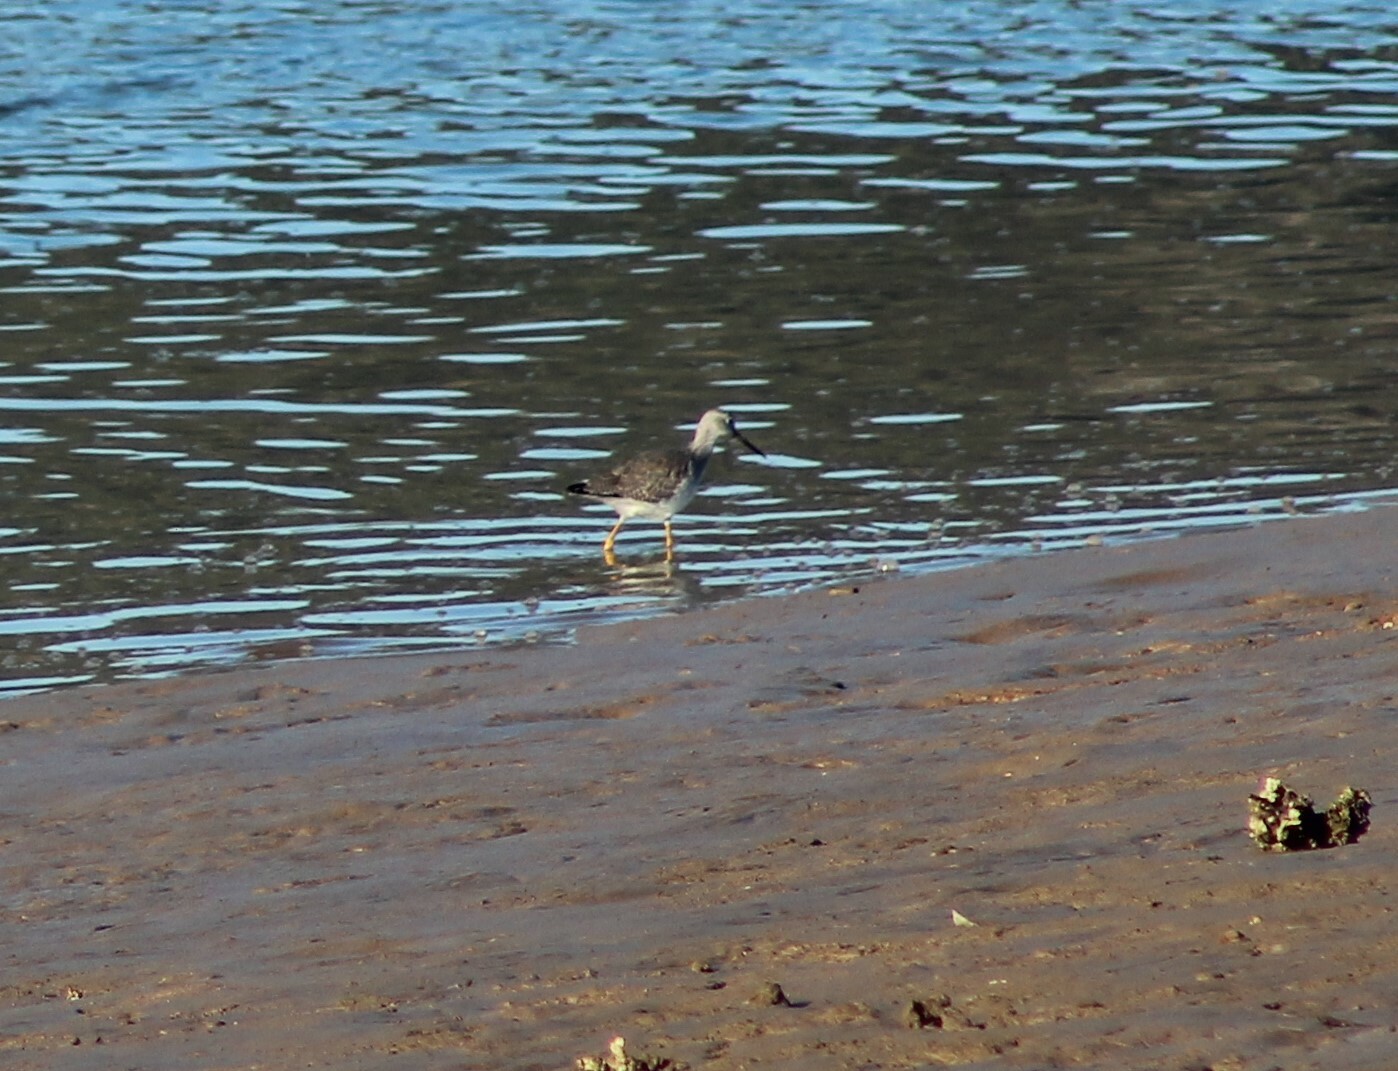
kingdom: Animalia
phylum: Chordata
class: Aves
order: Charadriiformes
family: Scolopacidae
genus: Tringa
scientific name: Tringa melanoleuca
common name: Greater yellowlegs
